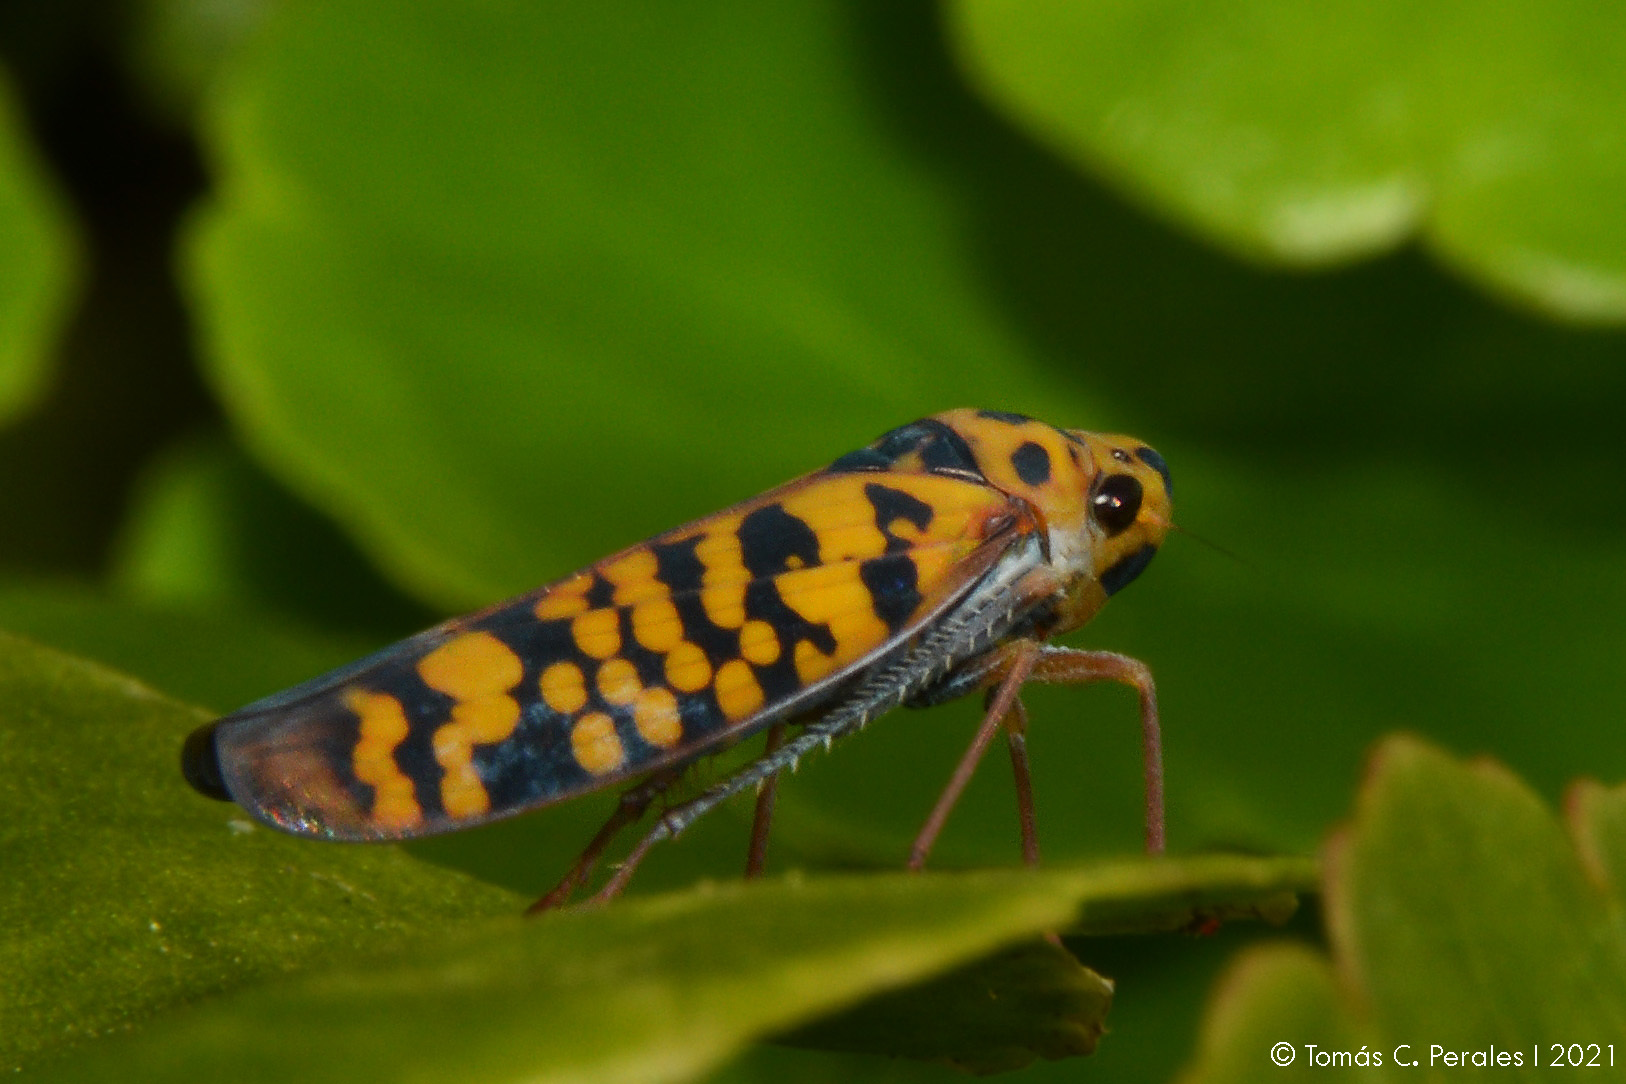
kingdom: Animalia
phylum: Arthropoda
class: Insecta
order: Hemiptera
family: Cicadellidae
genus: Pawiloma
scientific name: Pawiloma victima
